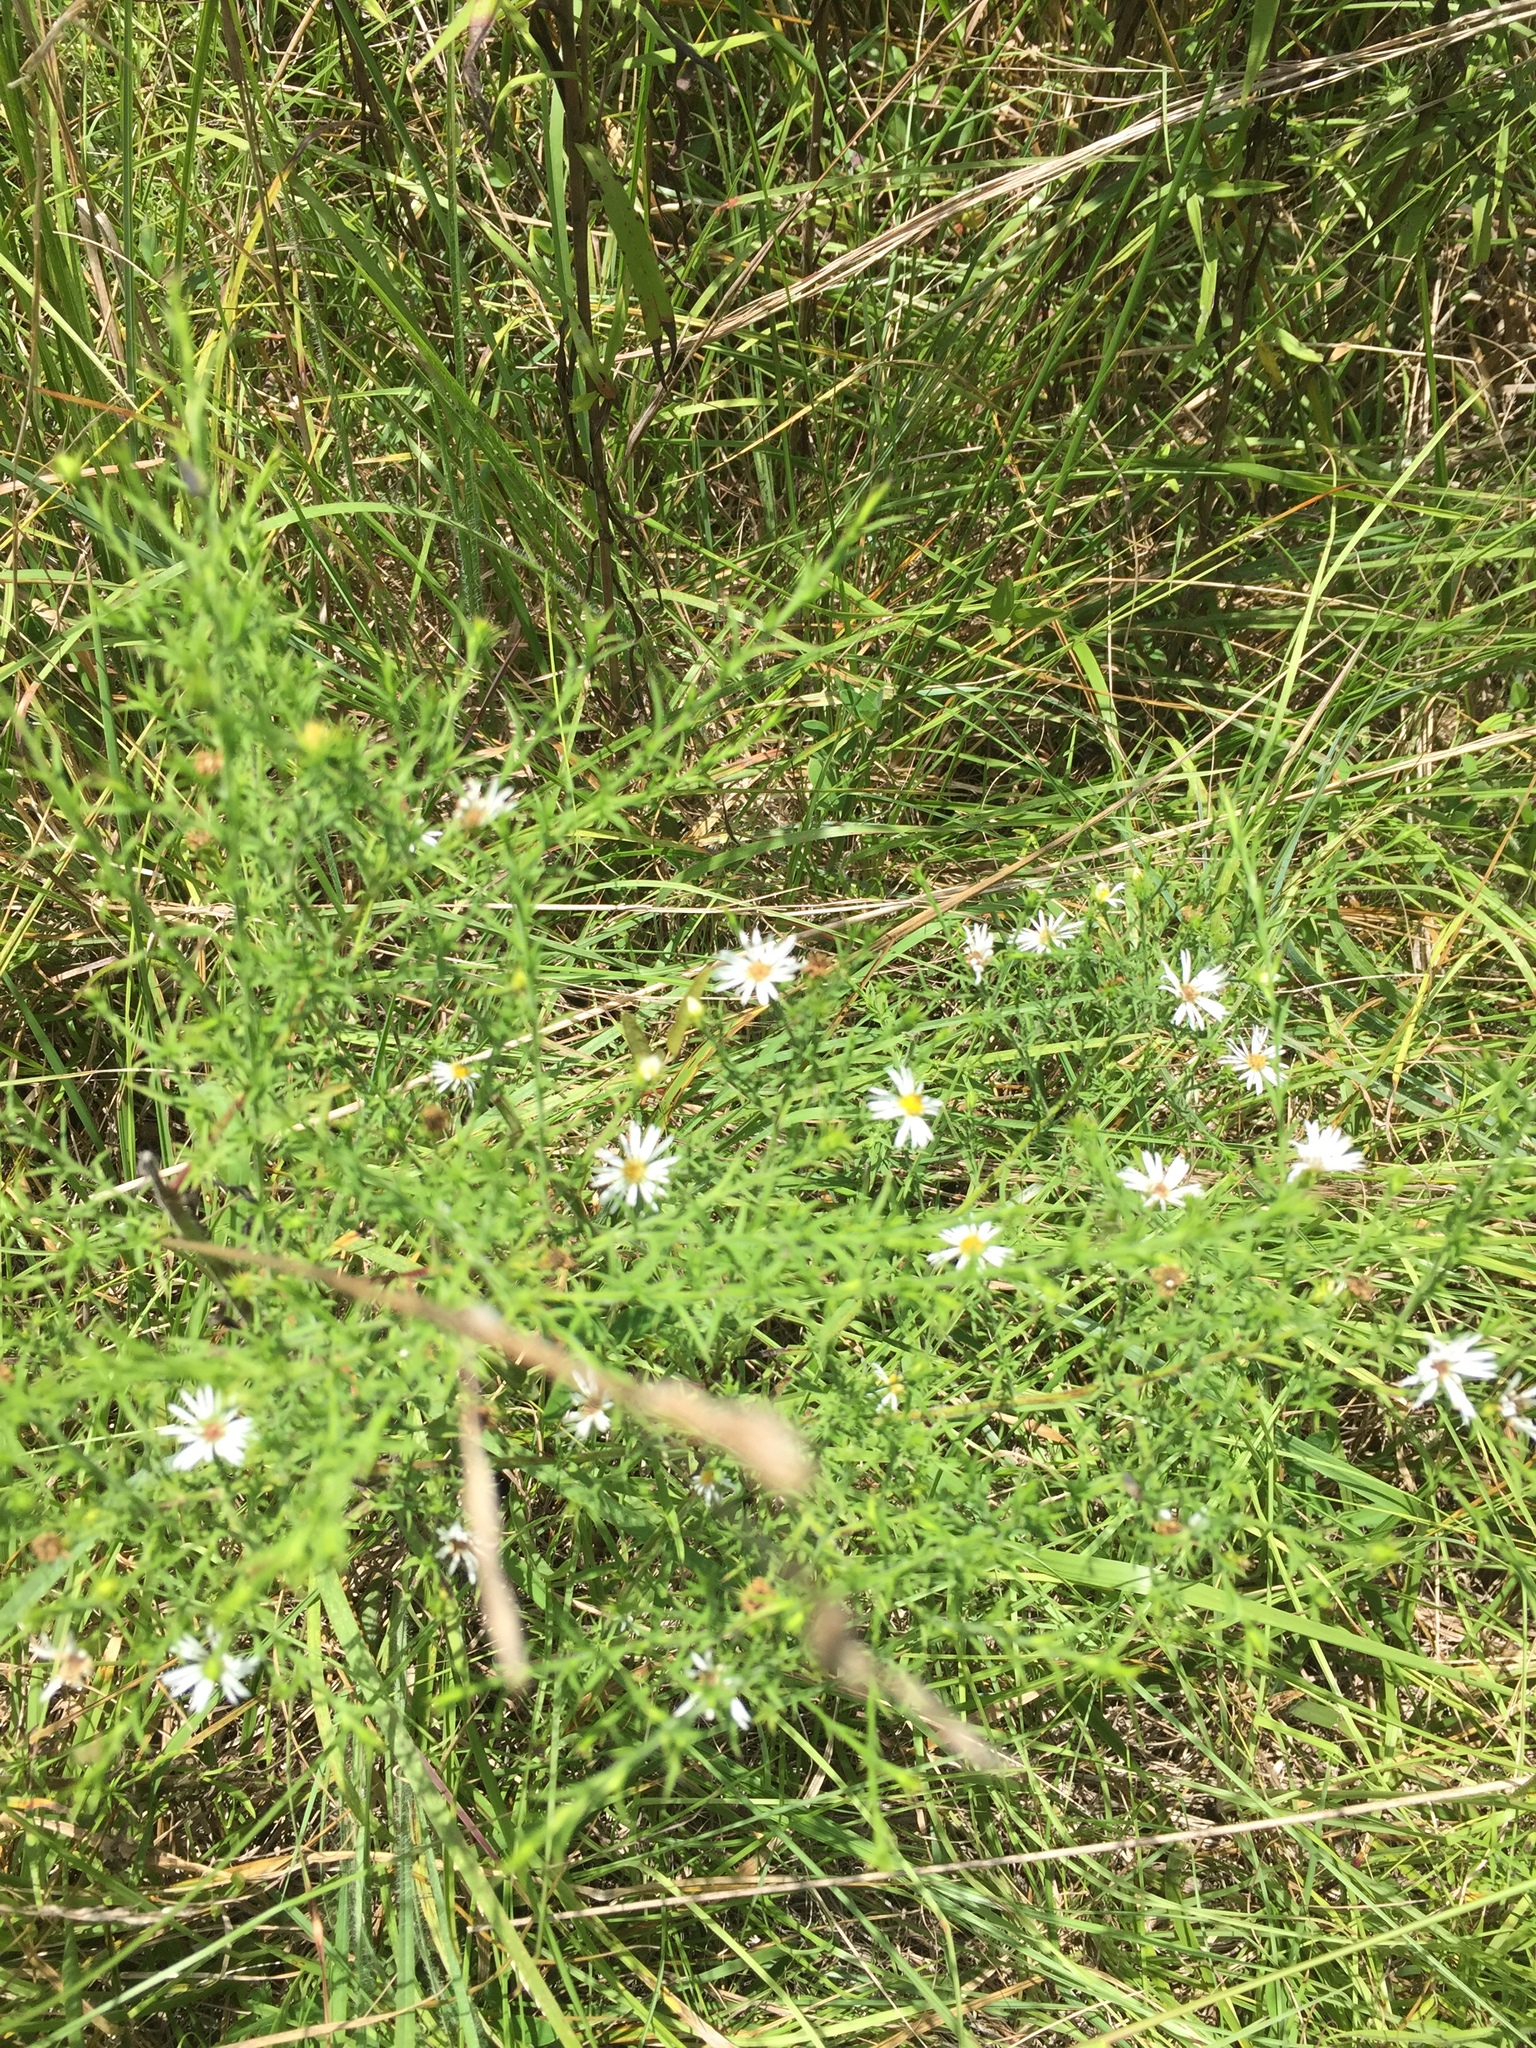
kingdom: Plantae
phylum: Tracheophyta
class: Magnoliopsida
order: Asterales
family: Asteraceae
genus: Symphyotrichum
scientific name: Symphyotrichum pilosum
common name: Awl aster
